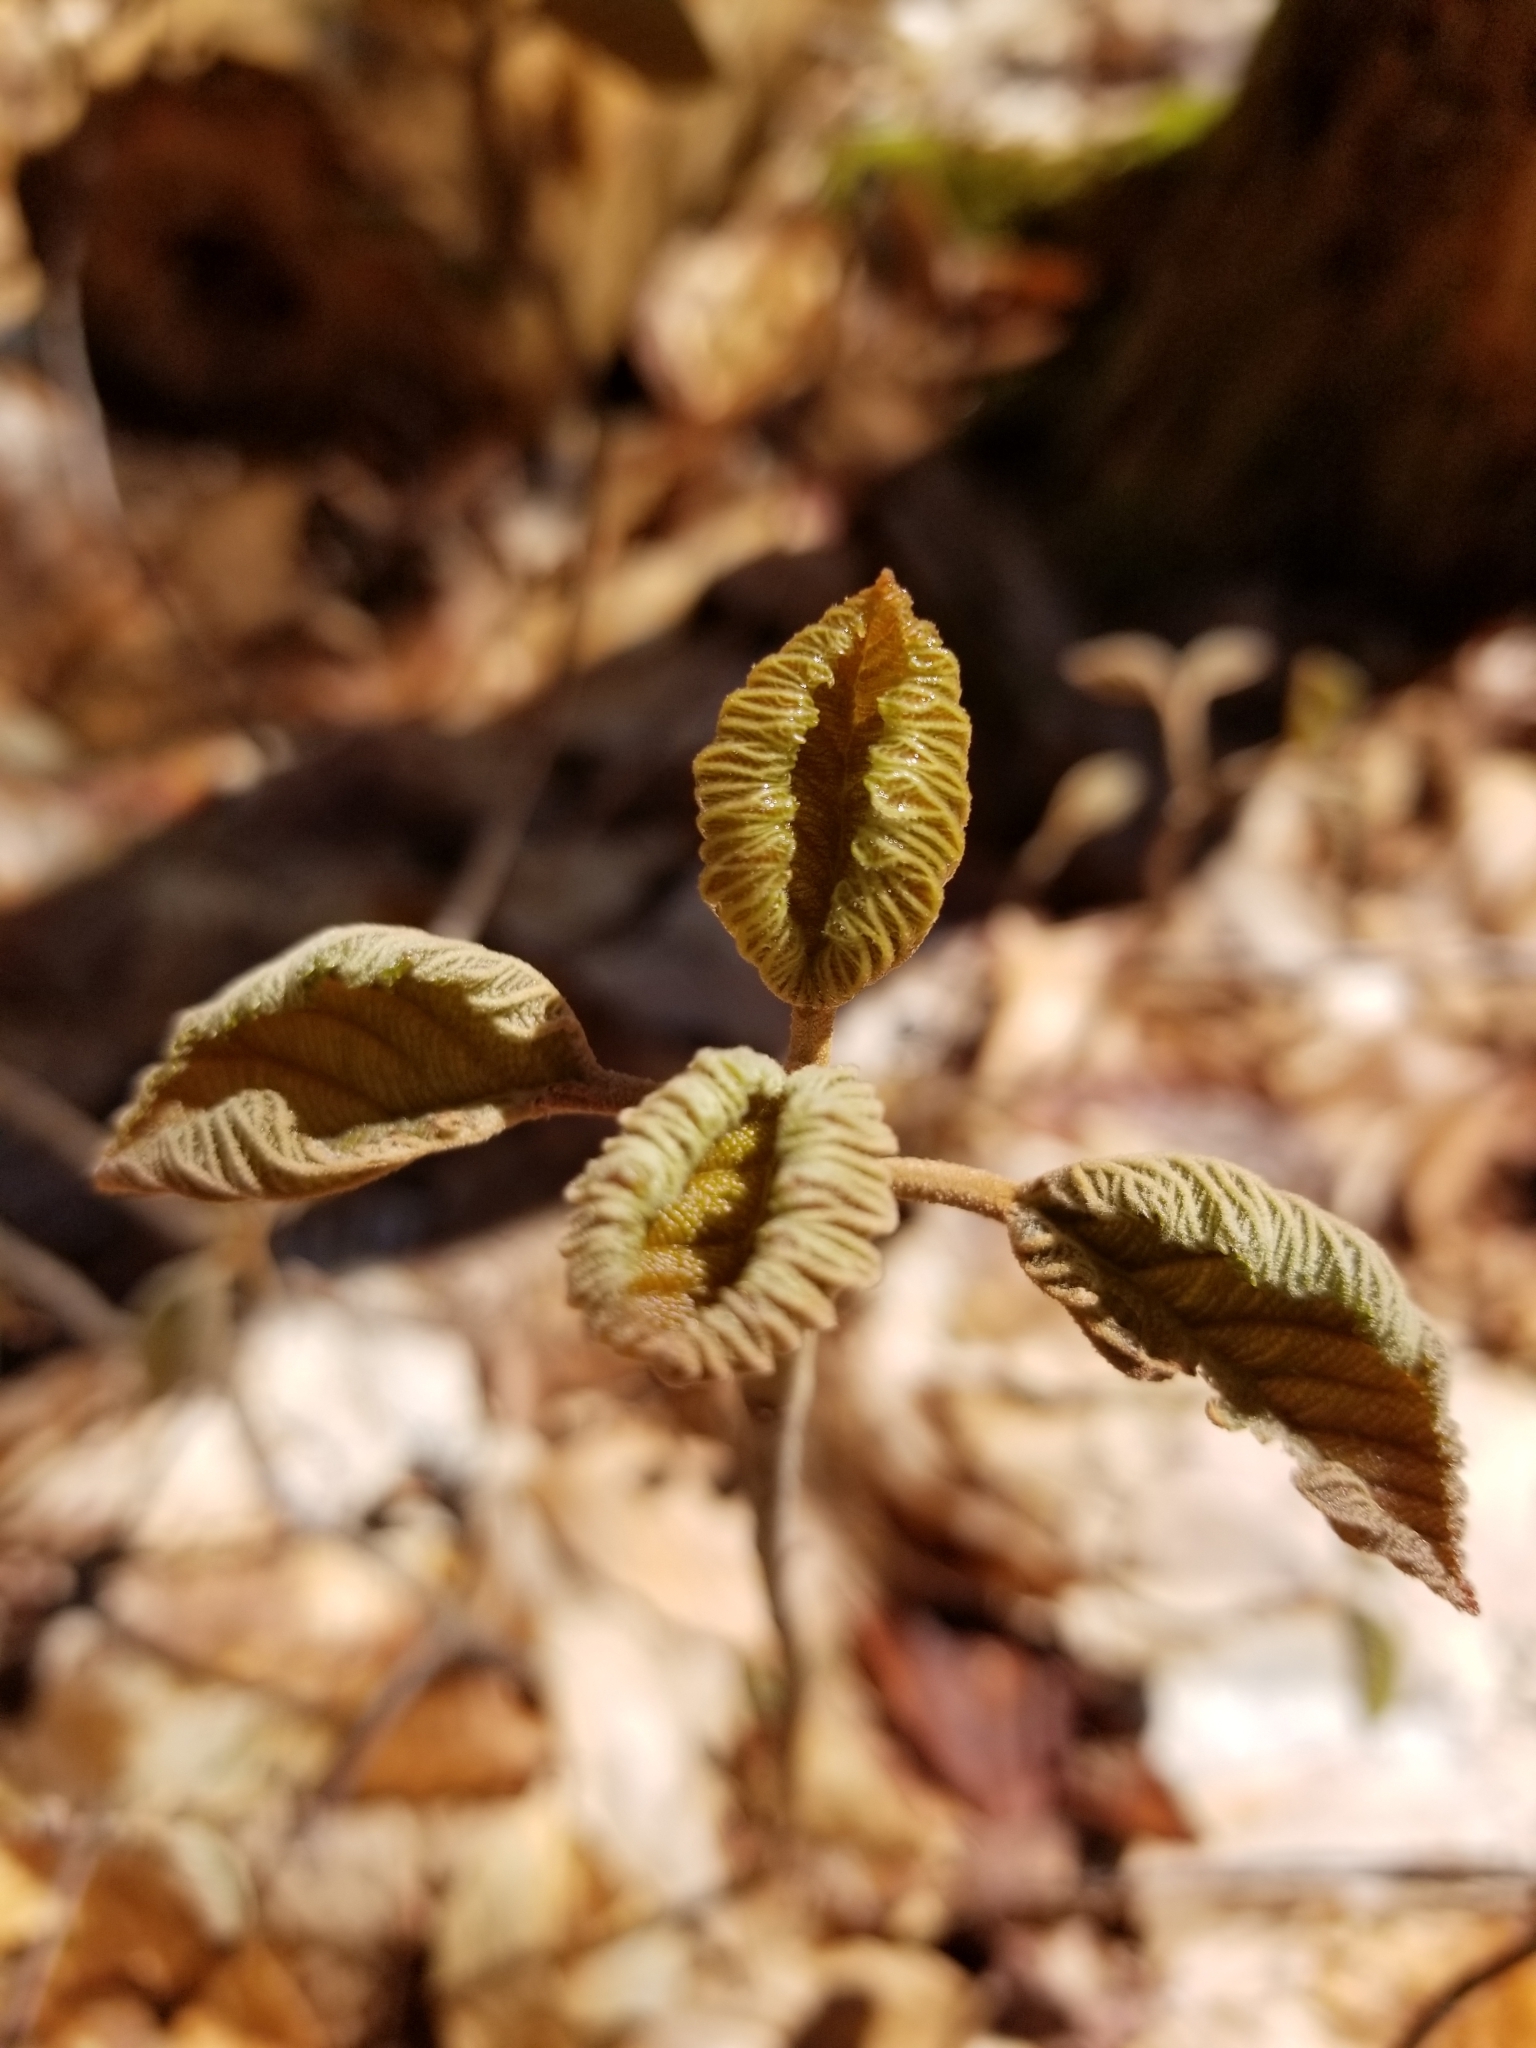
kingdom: Plantae
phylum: Tracheophyta
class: Magnoliopsida
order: Dipsacales
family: Viburnaceae
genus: Viburnum
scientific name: Viburnum lantanoides
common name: Hobblebush
